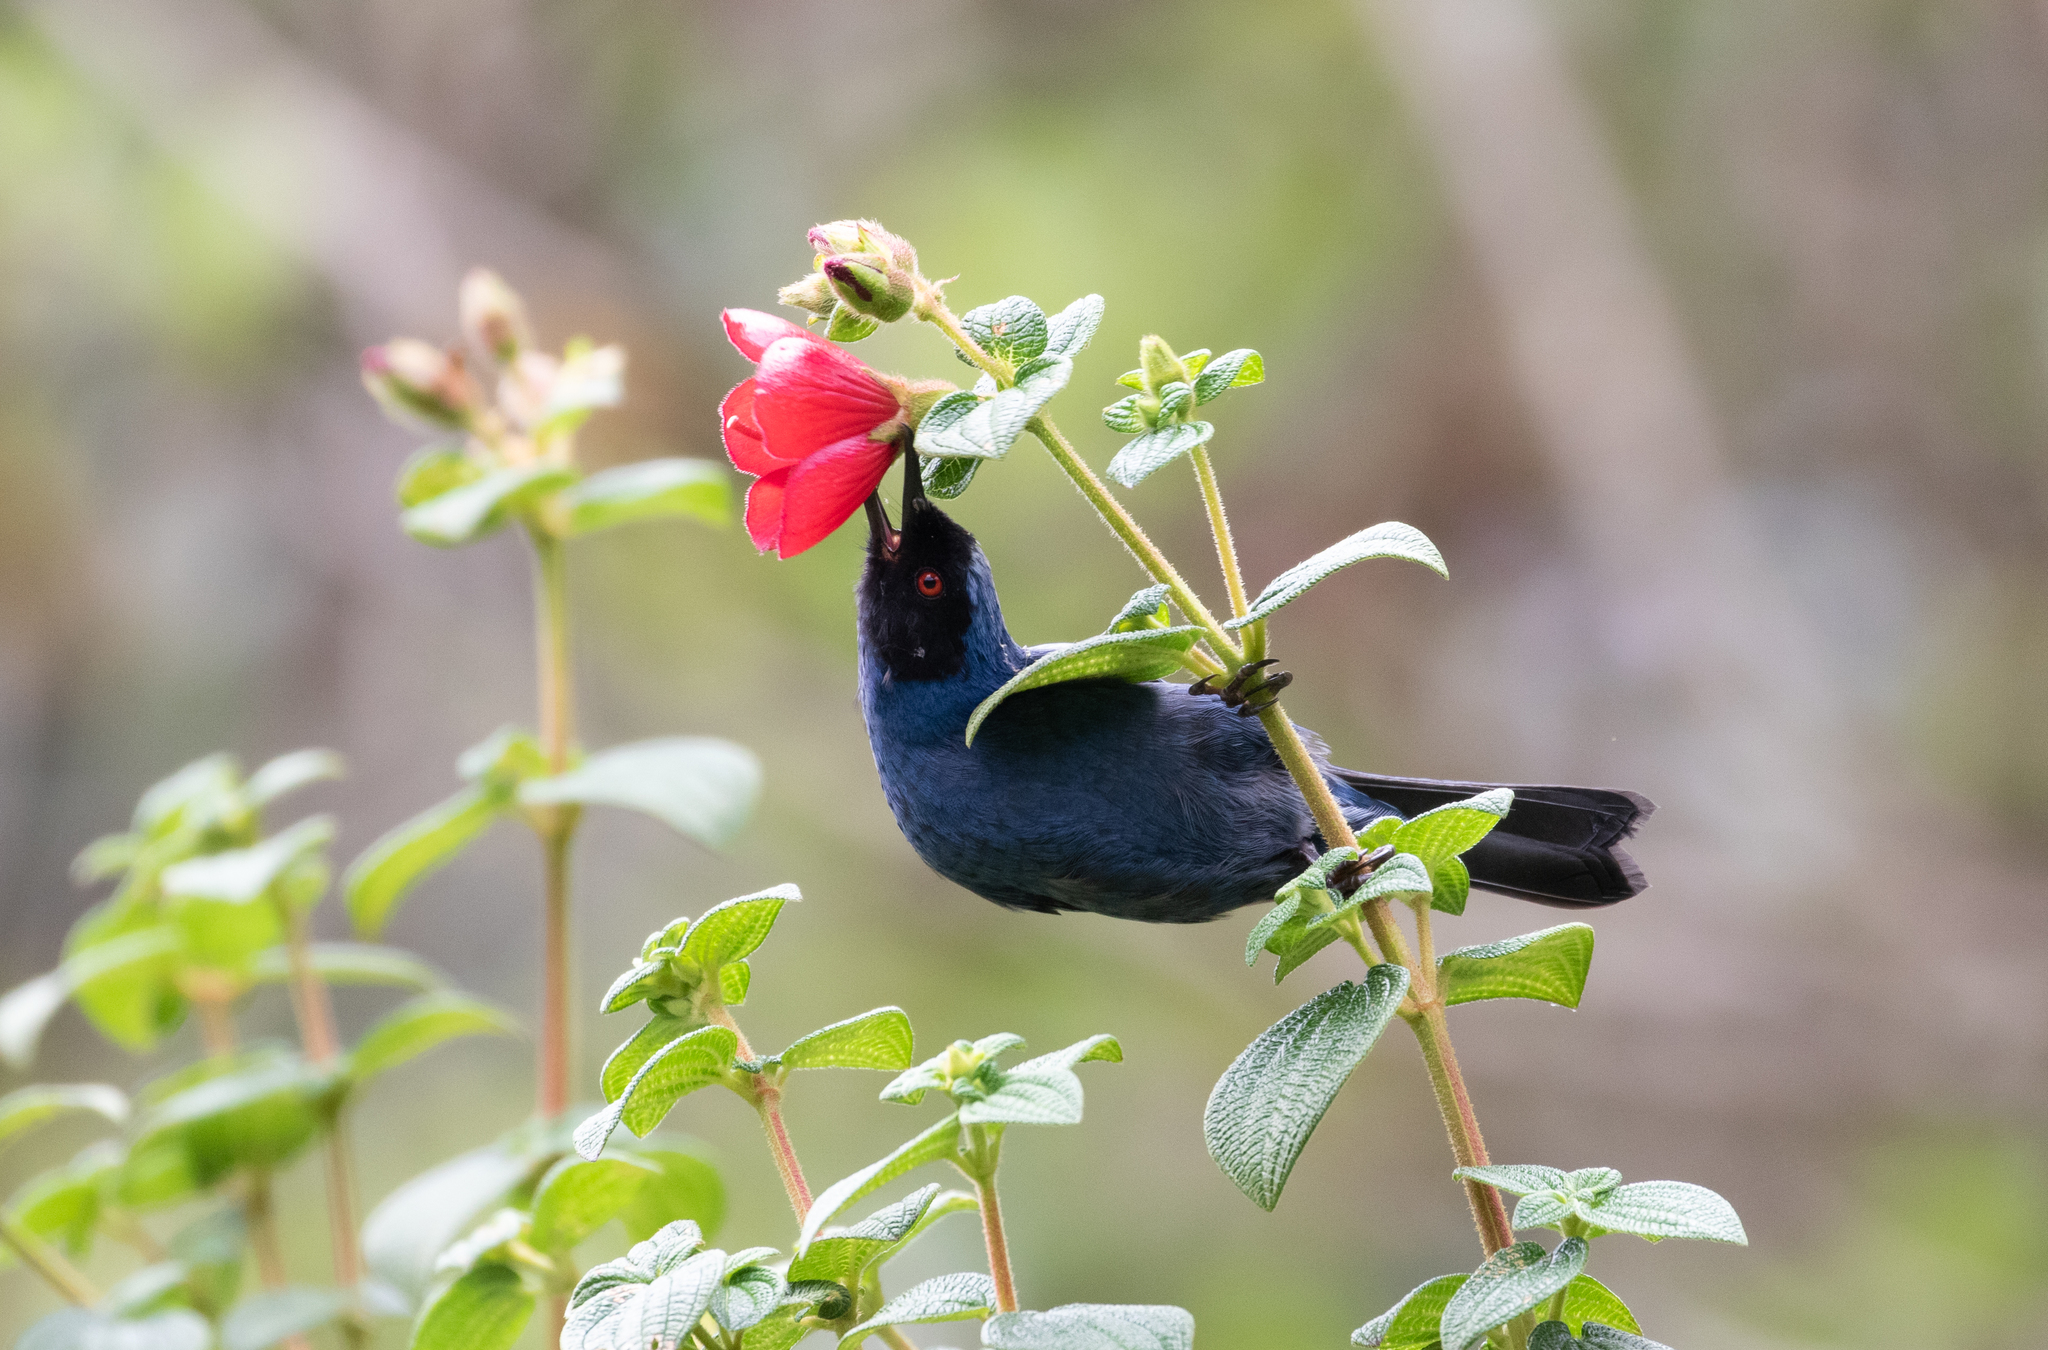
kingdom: Animalia
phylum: Chordata
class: Aves
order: Passeriformes
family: Thraupidae
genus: Diglossa
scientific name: Diglossa cyanea
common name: Masked flowerpiercer
